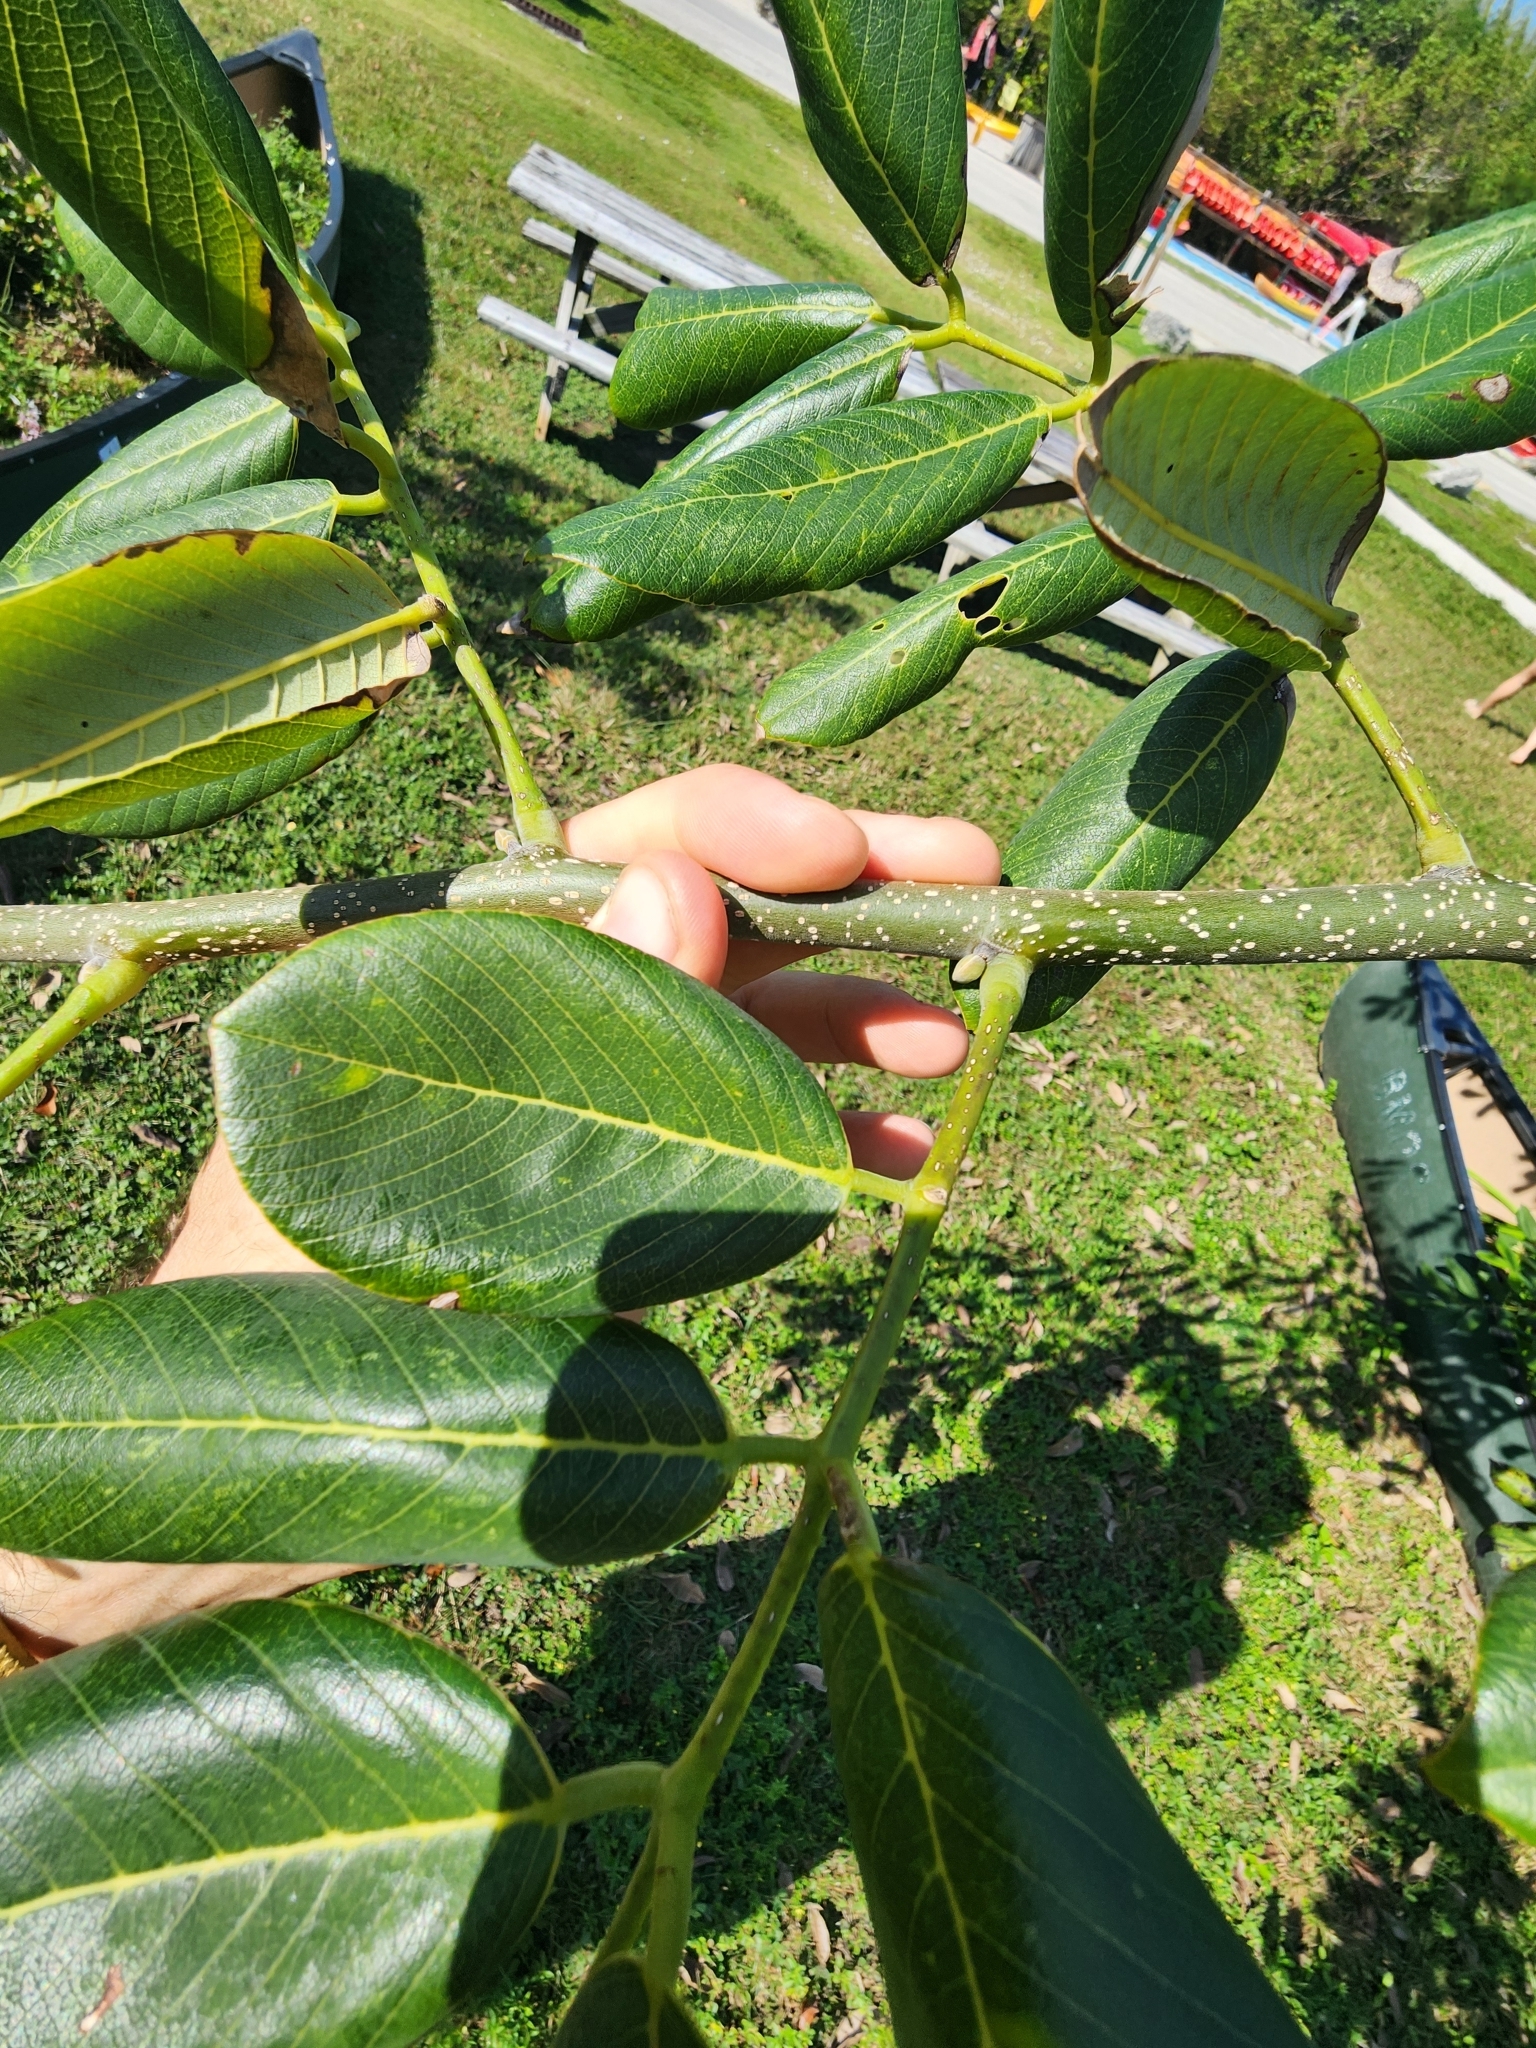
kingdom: Plantae
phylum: Tracheophyta
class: Magnoliopsida
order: Fabales
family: Fabaceae
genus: Piscidia
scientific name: Piscidia piscipula
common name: Florida fishpoison tree
